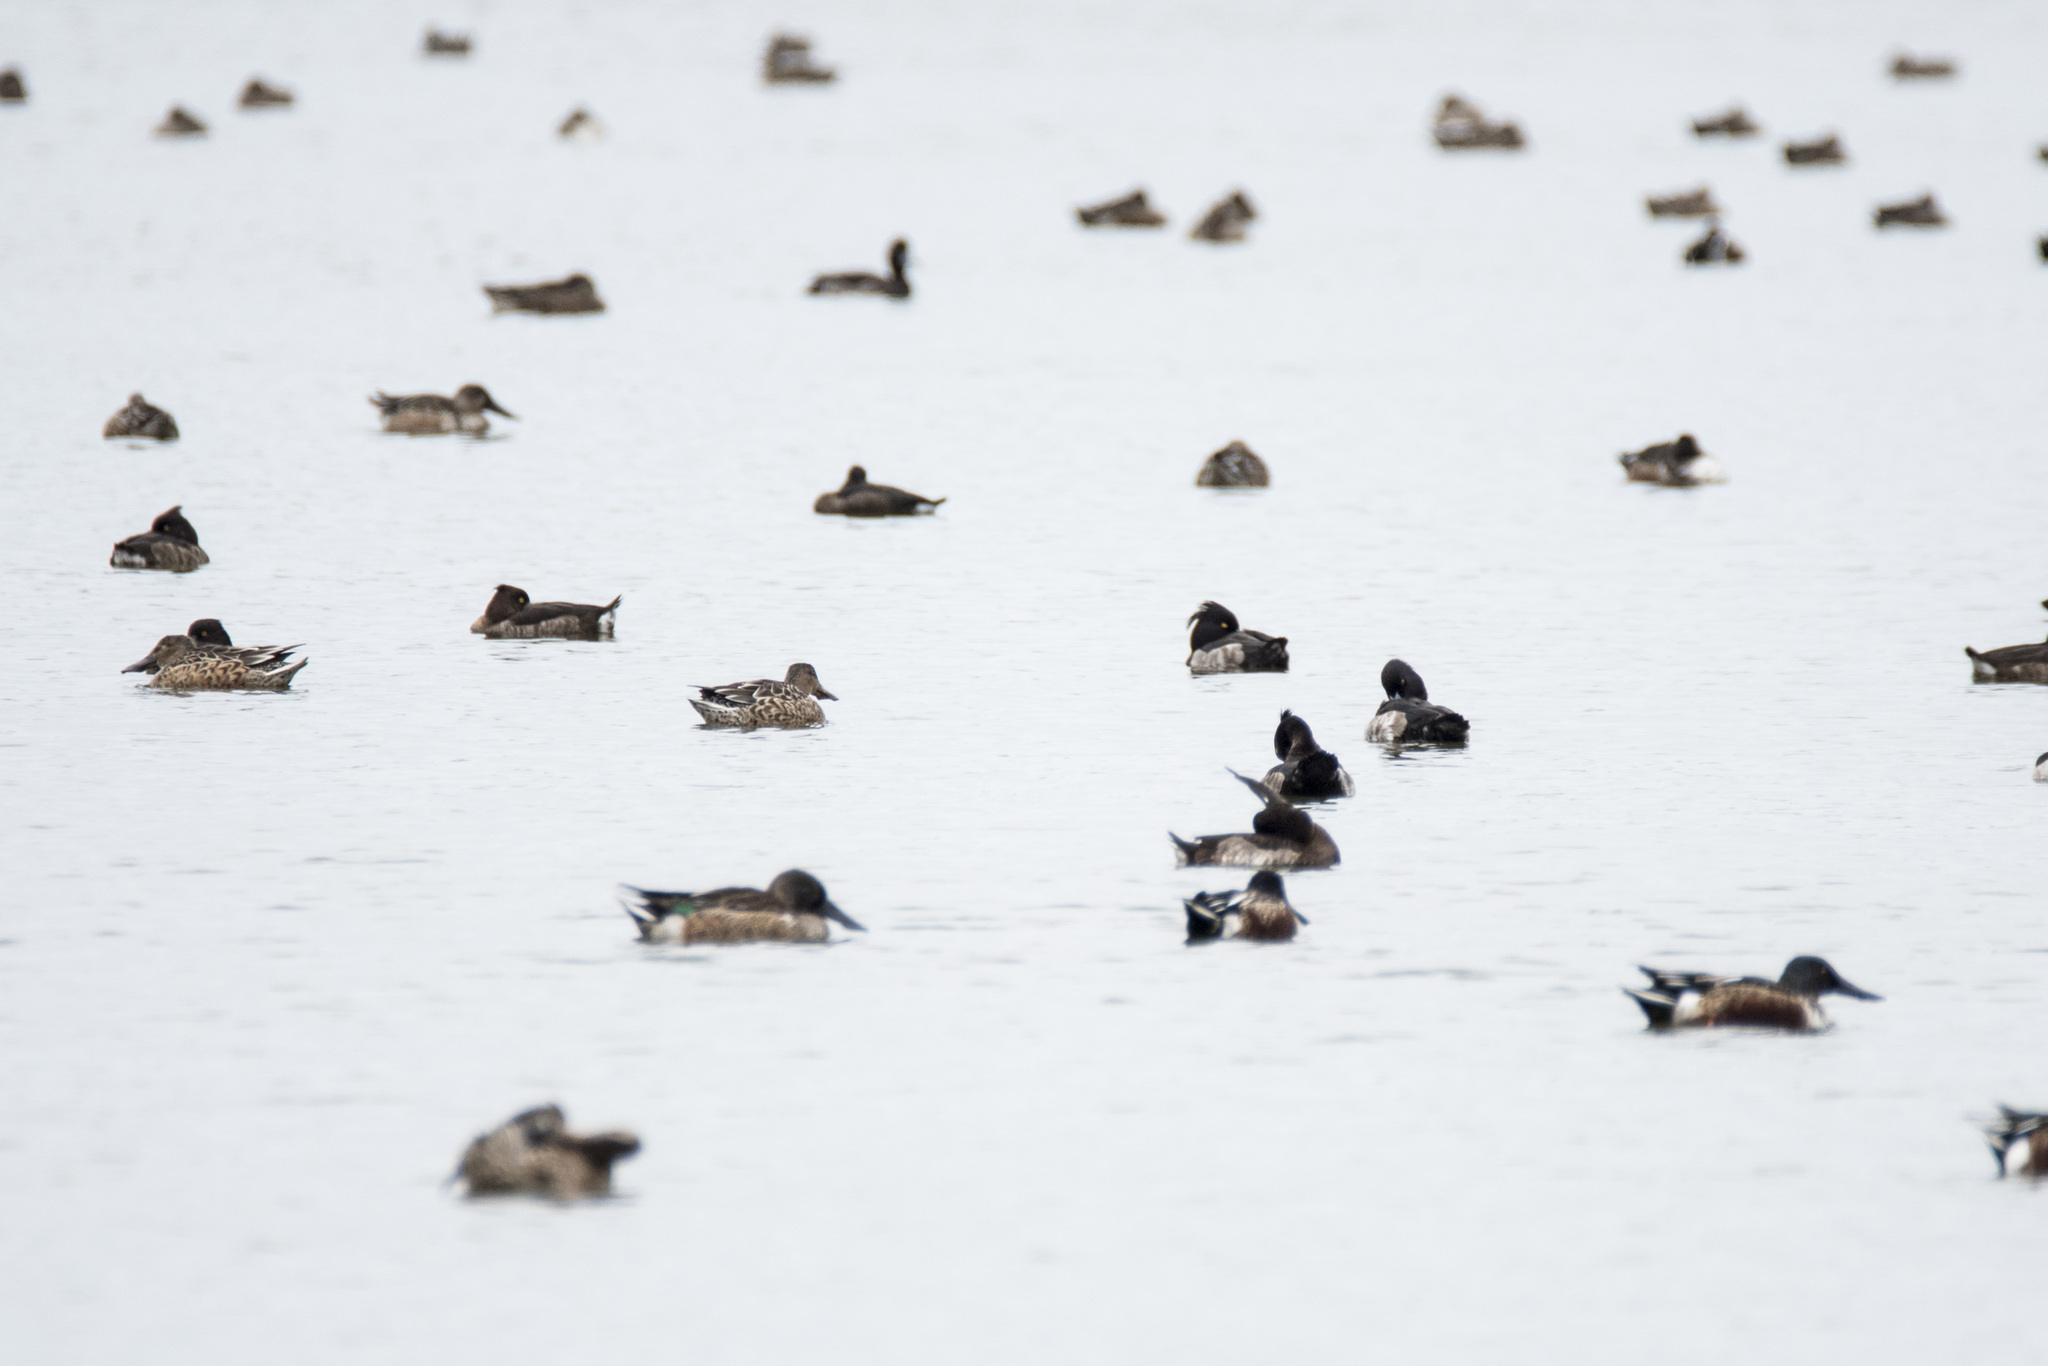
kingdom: Animalia
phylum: Chordata
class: Aves
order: Anseriformes
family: Anatidae
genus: Aythya
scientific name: Aythya fuligula
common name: Tufted duck
